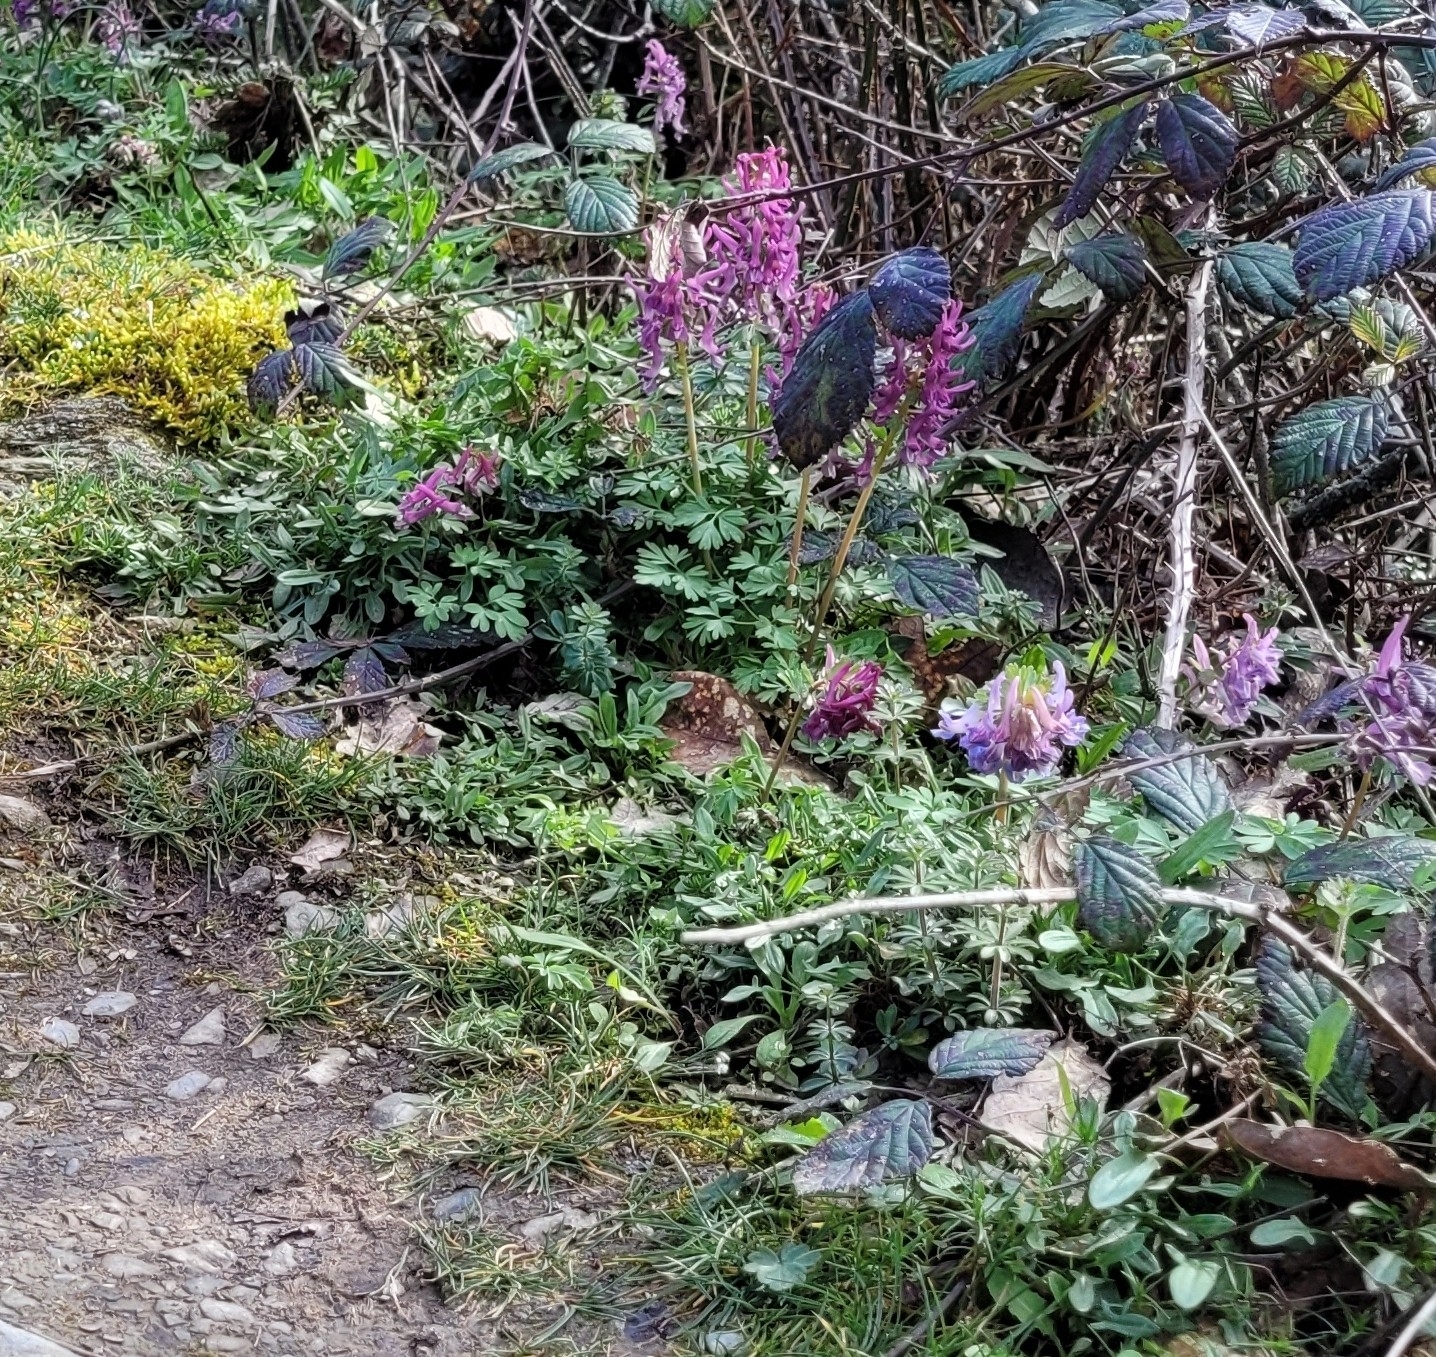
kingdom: Plantae
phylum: Tracheophyta
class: Magnoliopsida
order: Ranunculales
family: Papaveraceae
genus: Corydalis
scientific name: Corydalis solida
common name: Bird-in-a-bush
